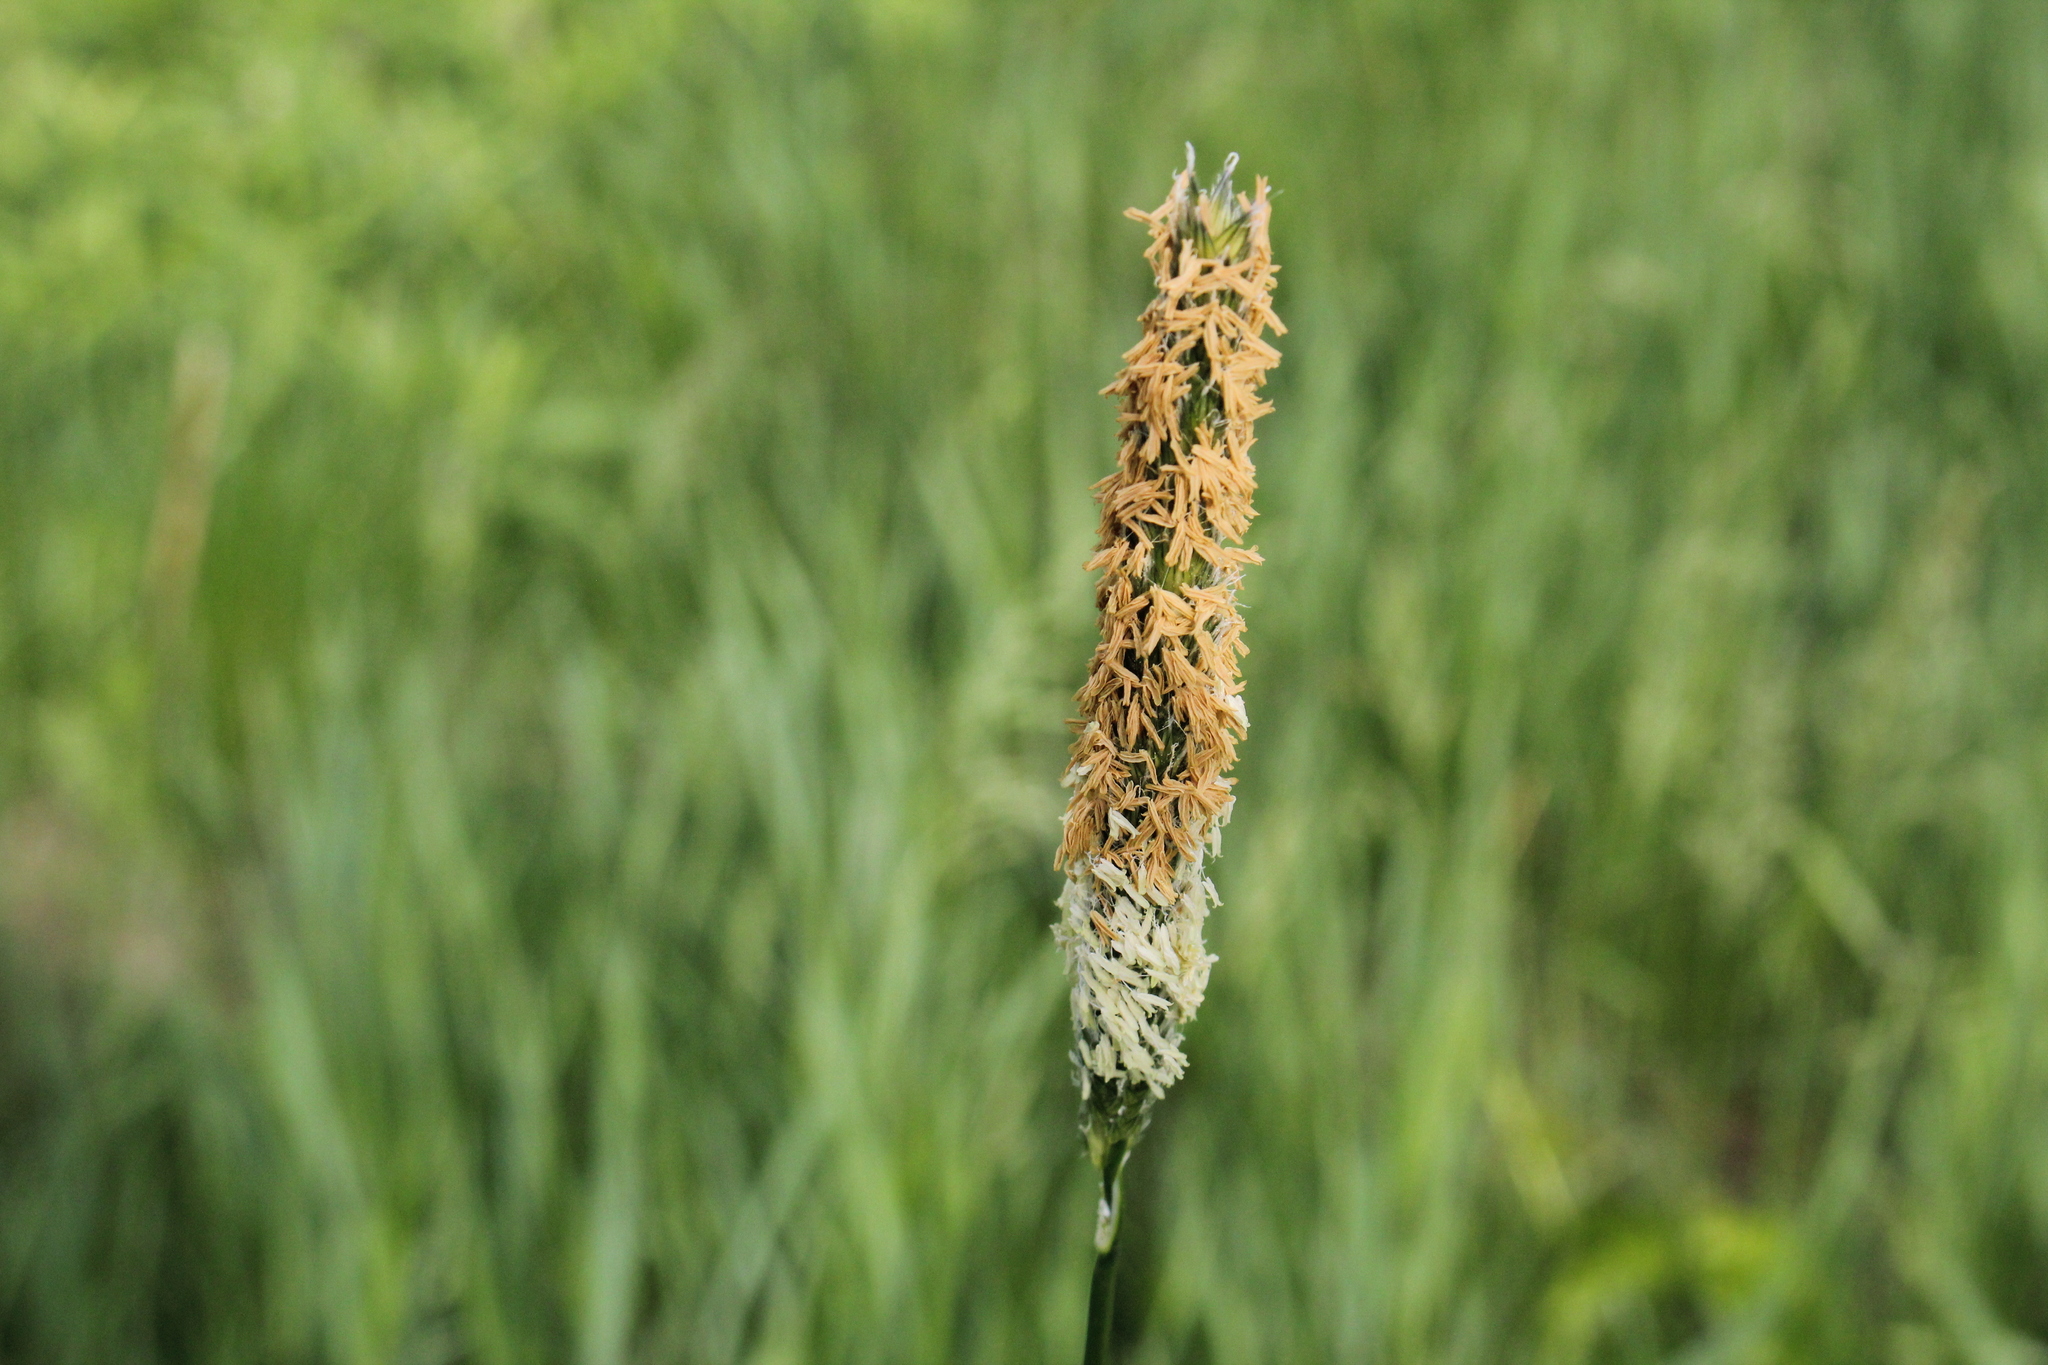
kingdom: Plantae
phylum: Tracheophyta
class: Liliopsida
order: Poales
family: Poaceae
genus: Alopecurus
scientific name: Alopecurus pratensis
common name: Meadow foxtail
